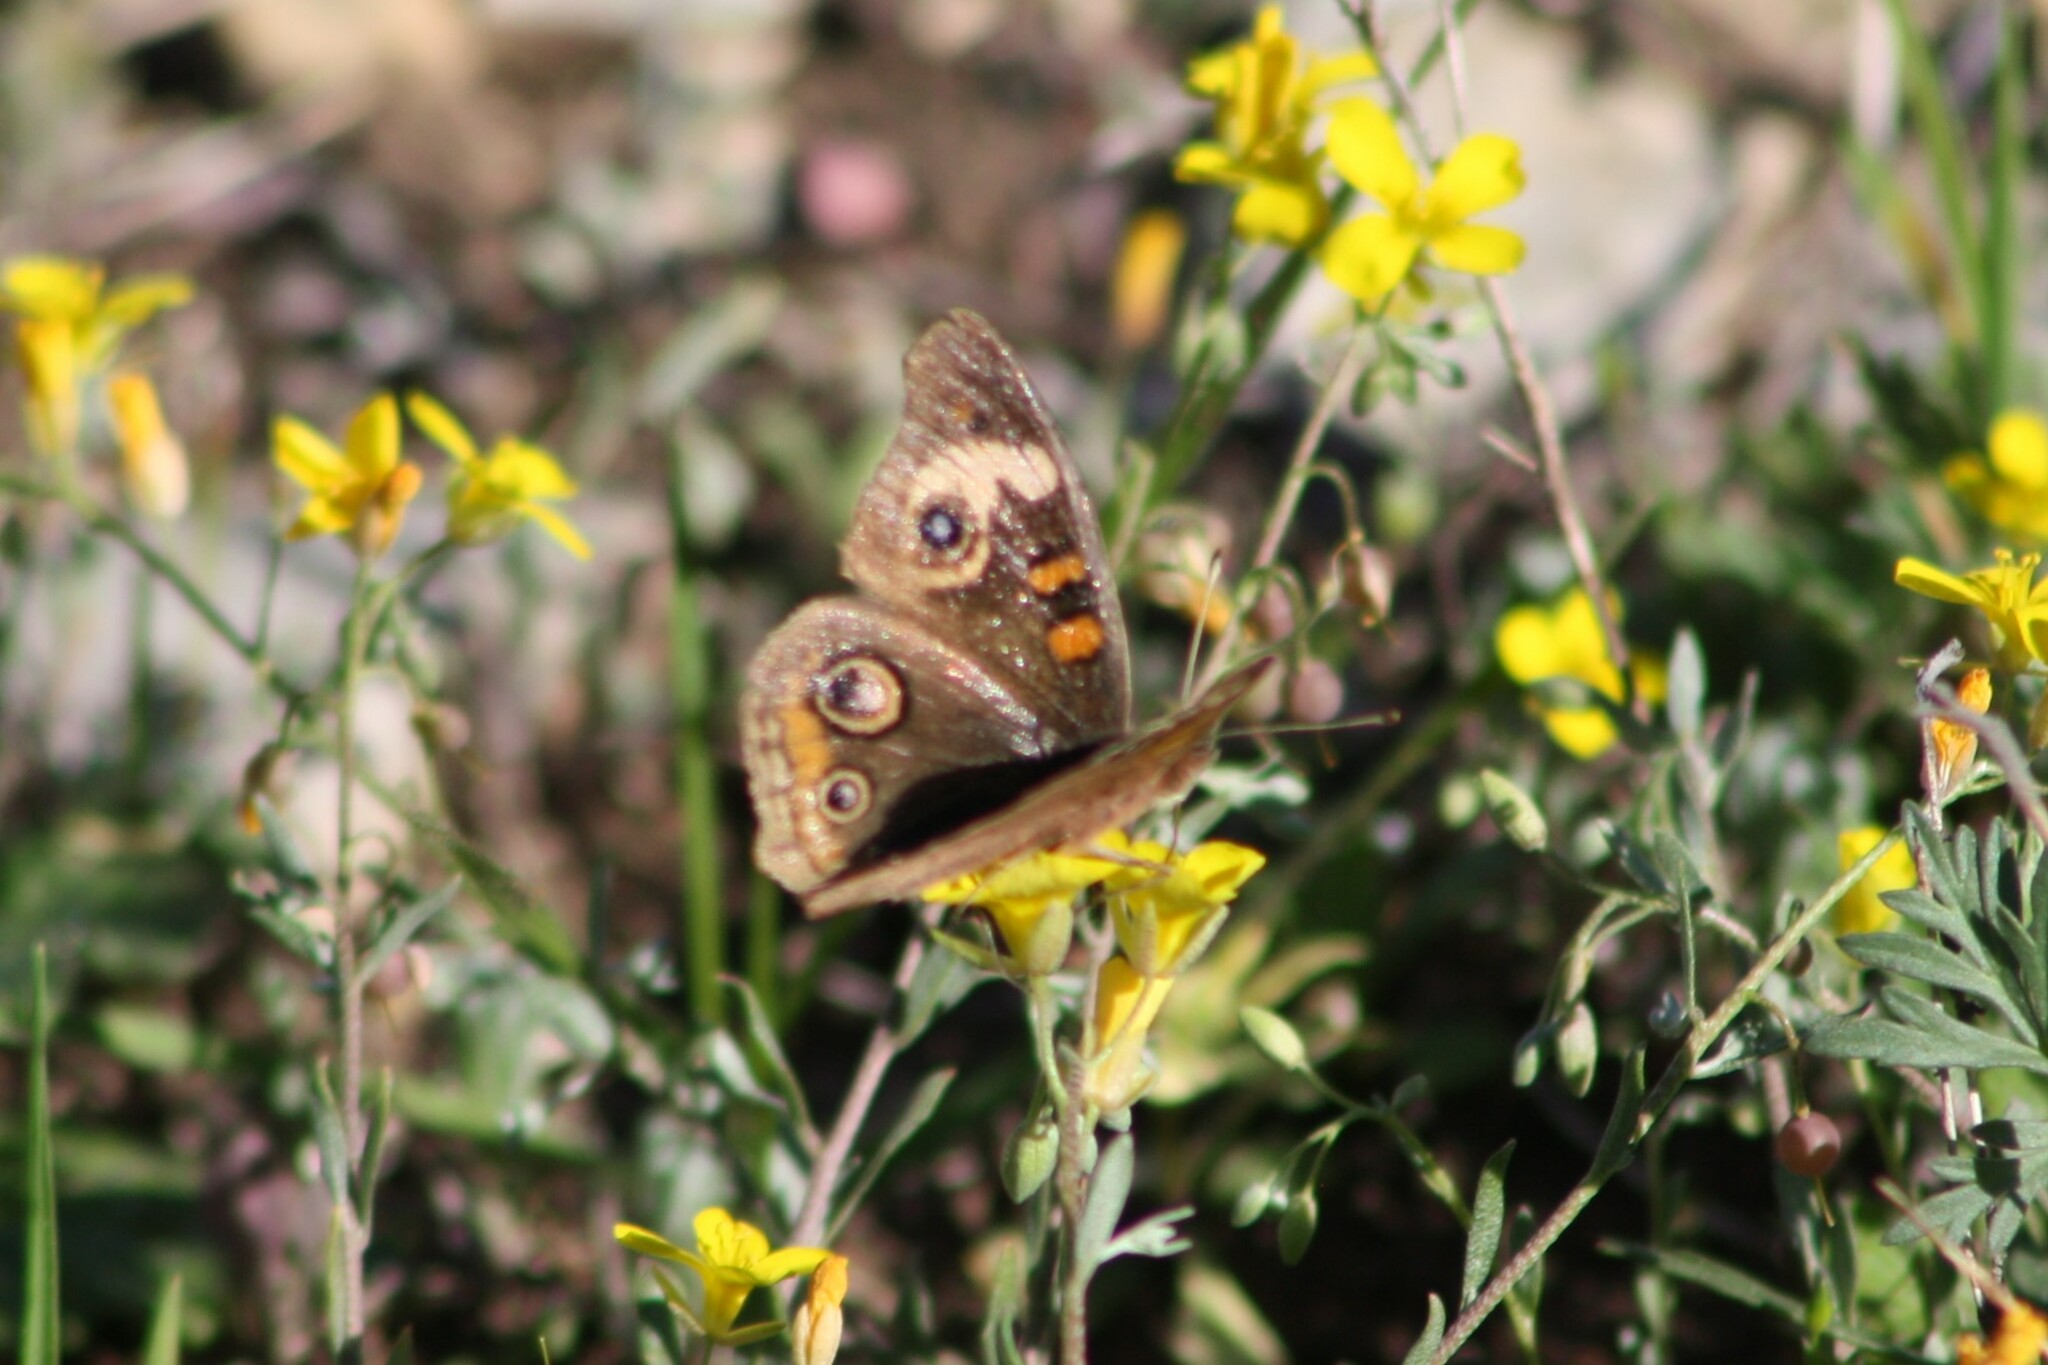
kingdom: Animalia
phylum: Arthropoda
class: Insecta
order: Lepidoptera
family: Nymphalidae
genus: Junonia
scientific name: Junonia coenia
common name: Common buckeye
